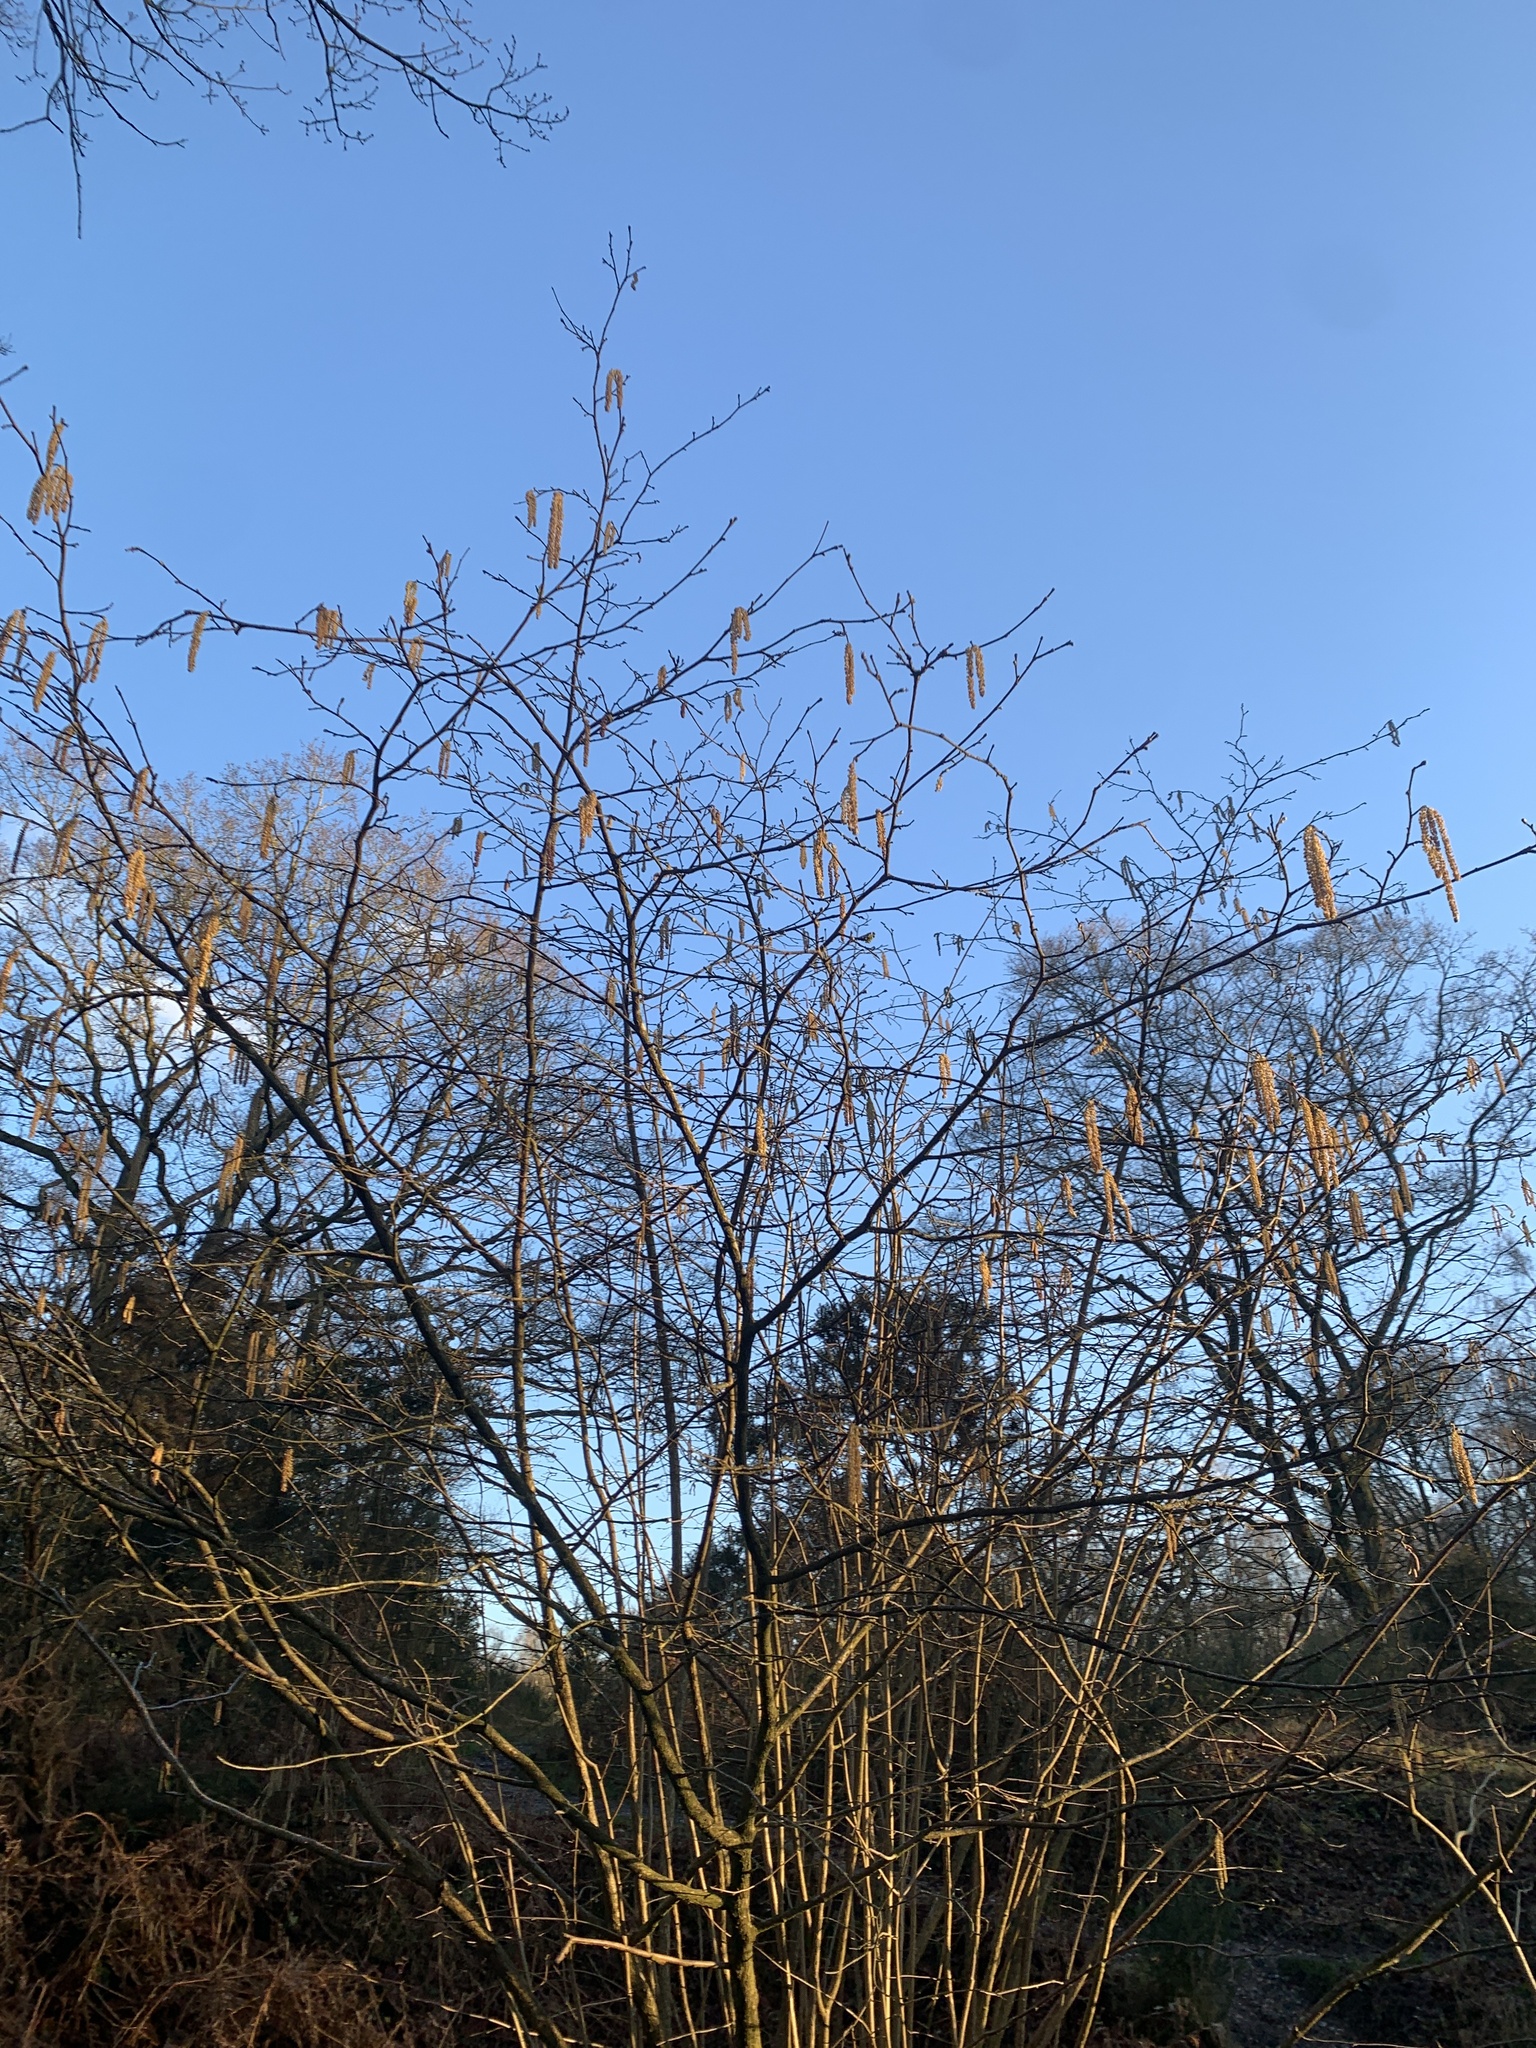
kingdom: Plantae
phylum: Tracheophyta
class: Magnoliopsida
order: Fagales
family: Betulaceae
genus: Corylus
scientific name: Corylus avellana
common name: European hazel
